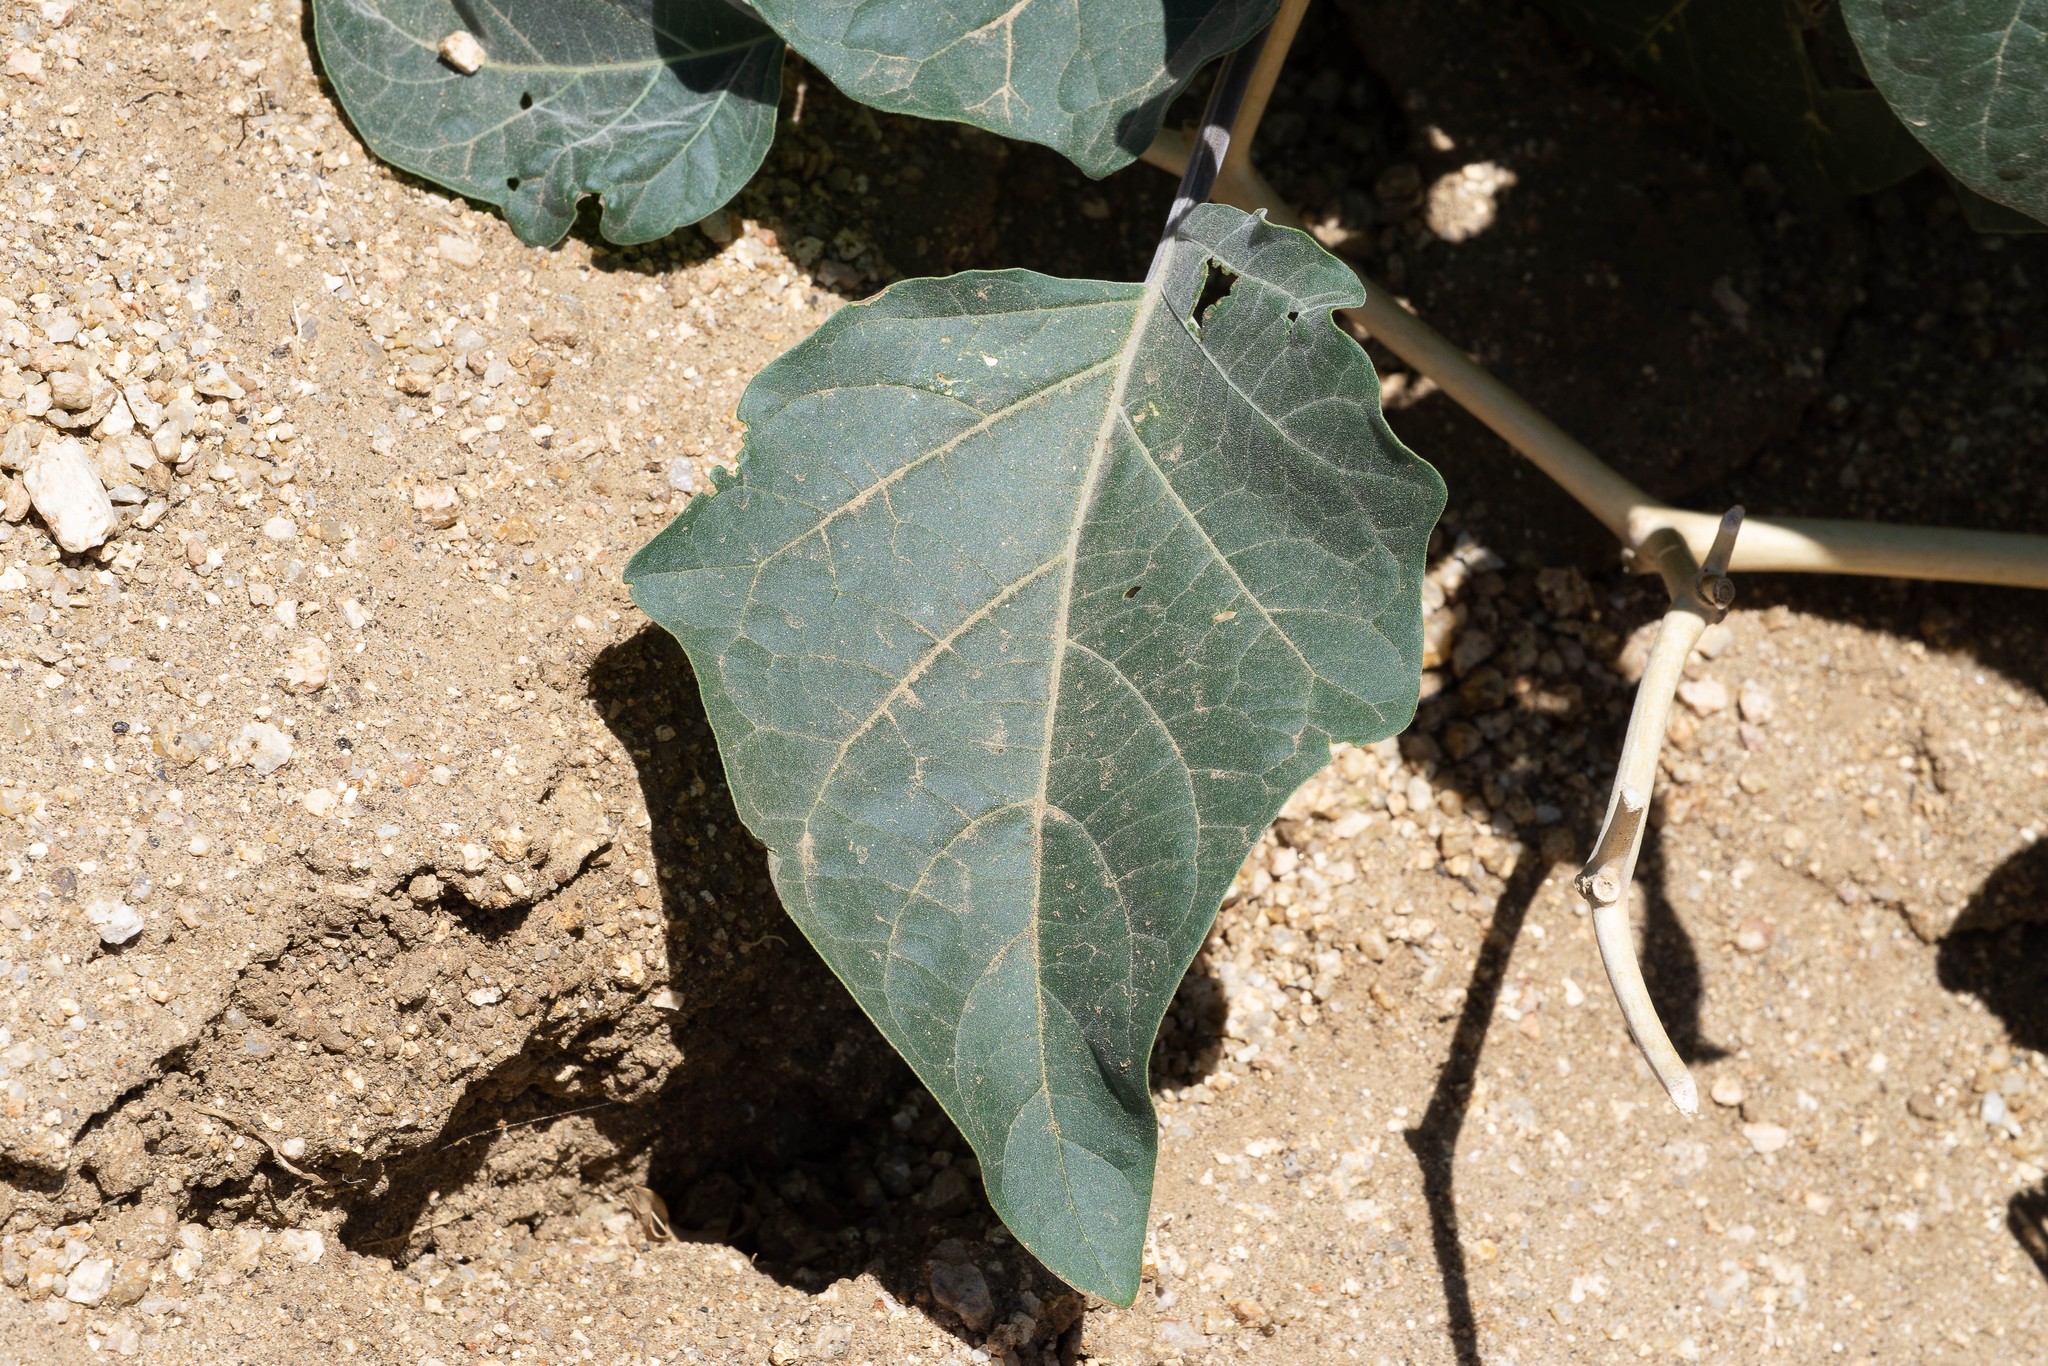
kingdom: Plantae
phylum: Tracheophyta
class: Magnoliopsida
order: Solanales
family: Solanaceae
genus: Datura
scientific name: Datura wrightii
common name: Sacred thorn-apple
